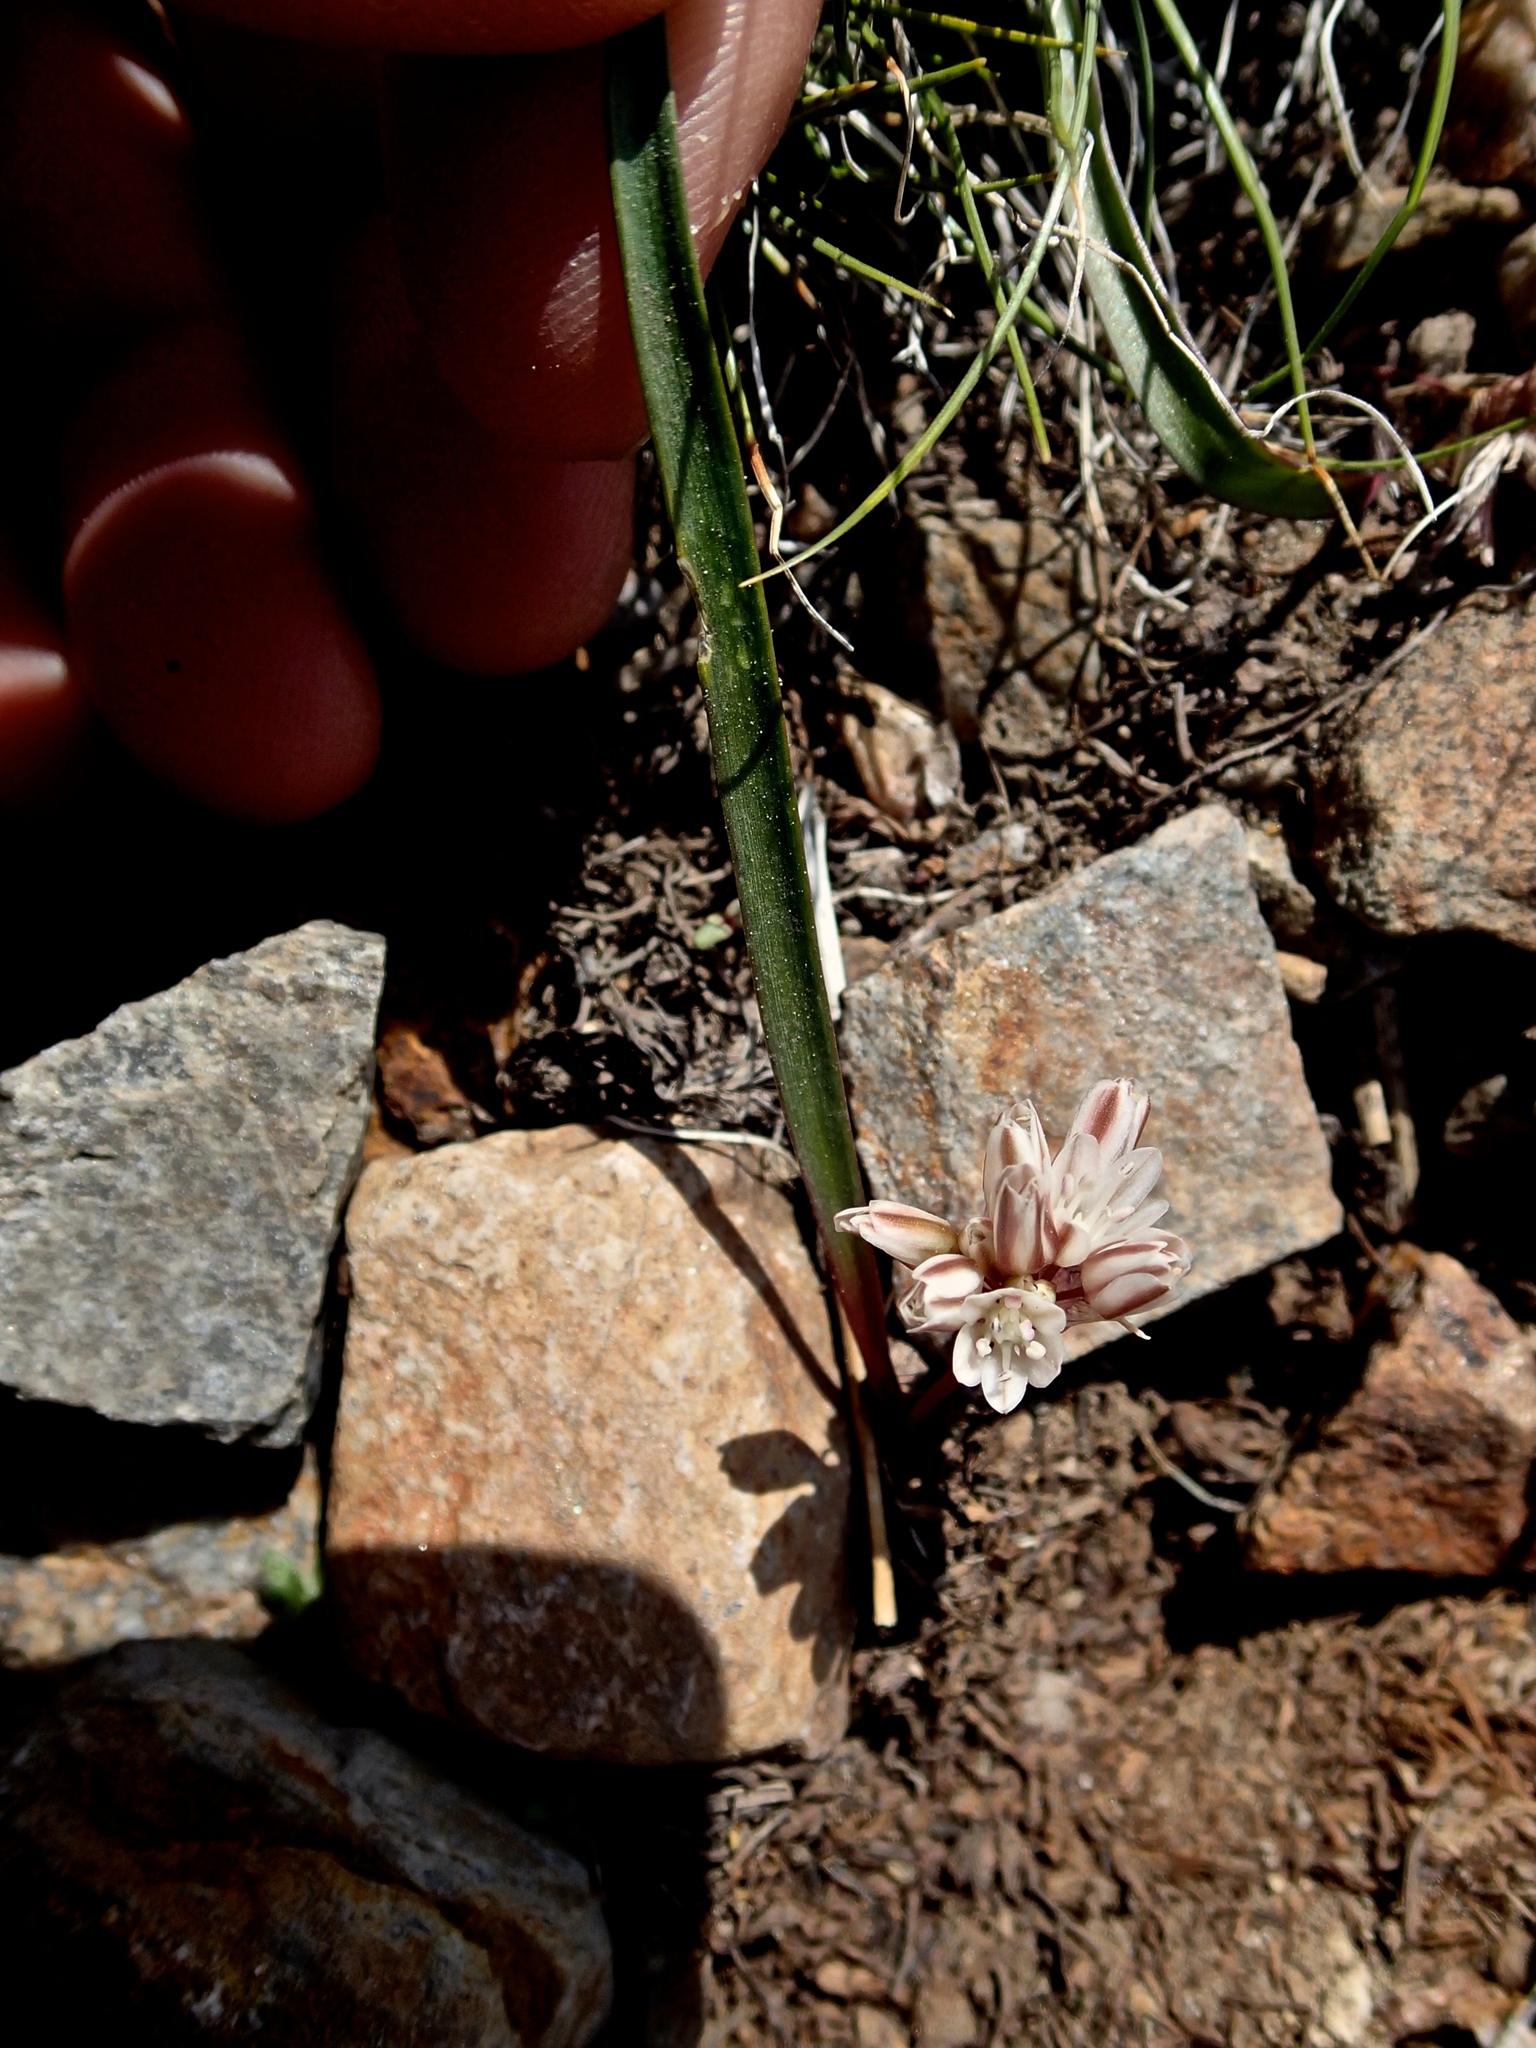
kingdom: Plantae
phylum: Tracheophyta
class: Liliopsida
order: Asparagales
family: Amaryllidaceae
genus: Allium
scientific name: Allium obtusum
